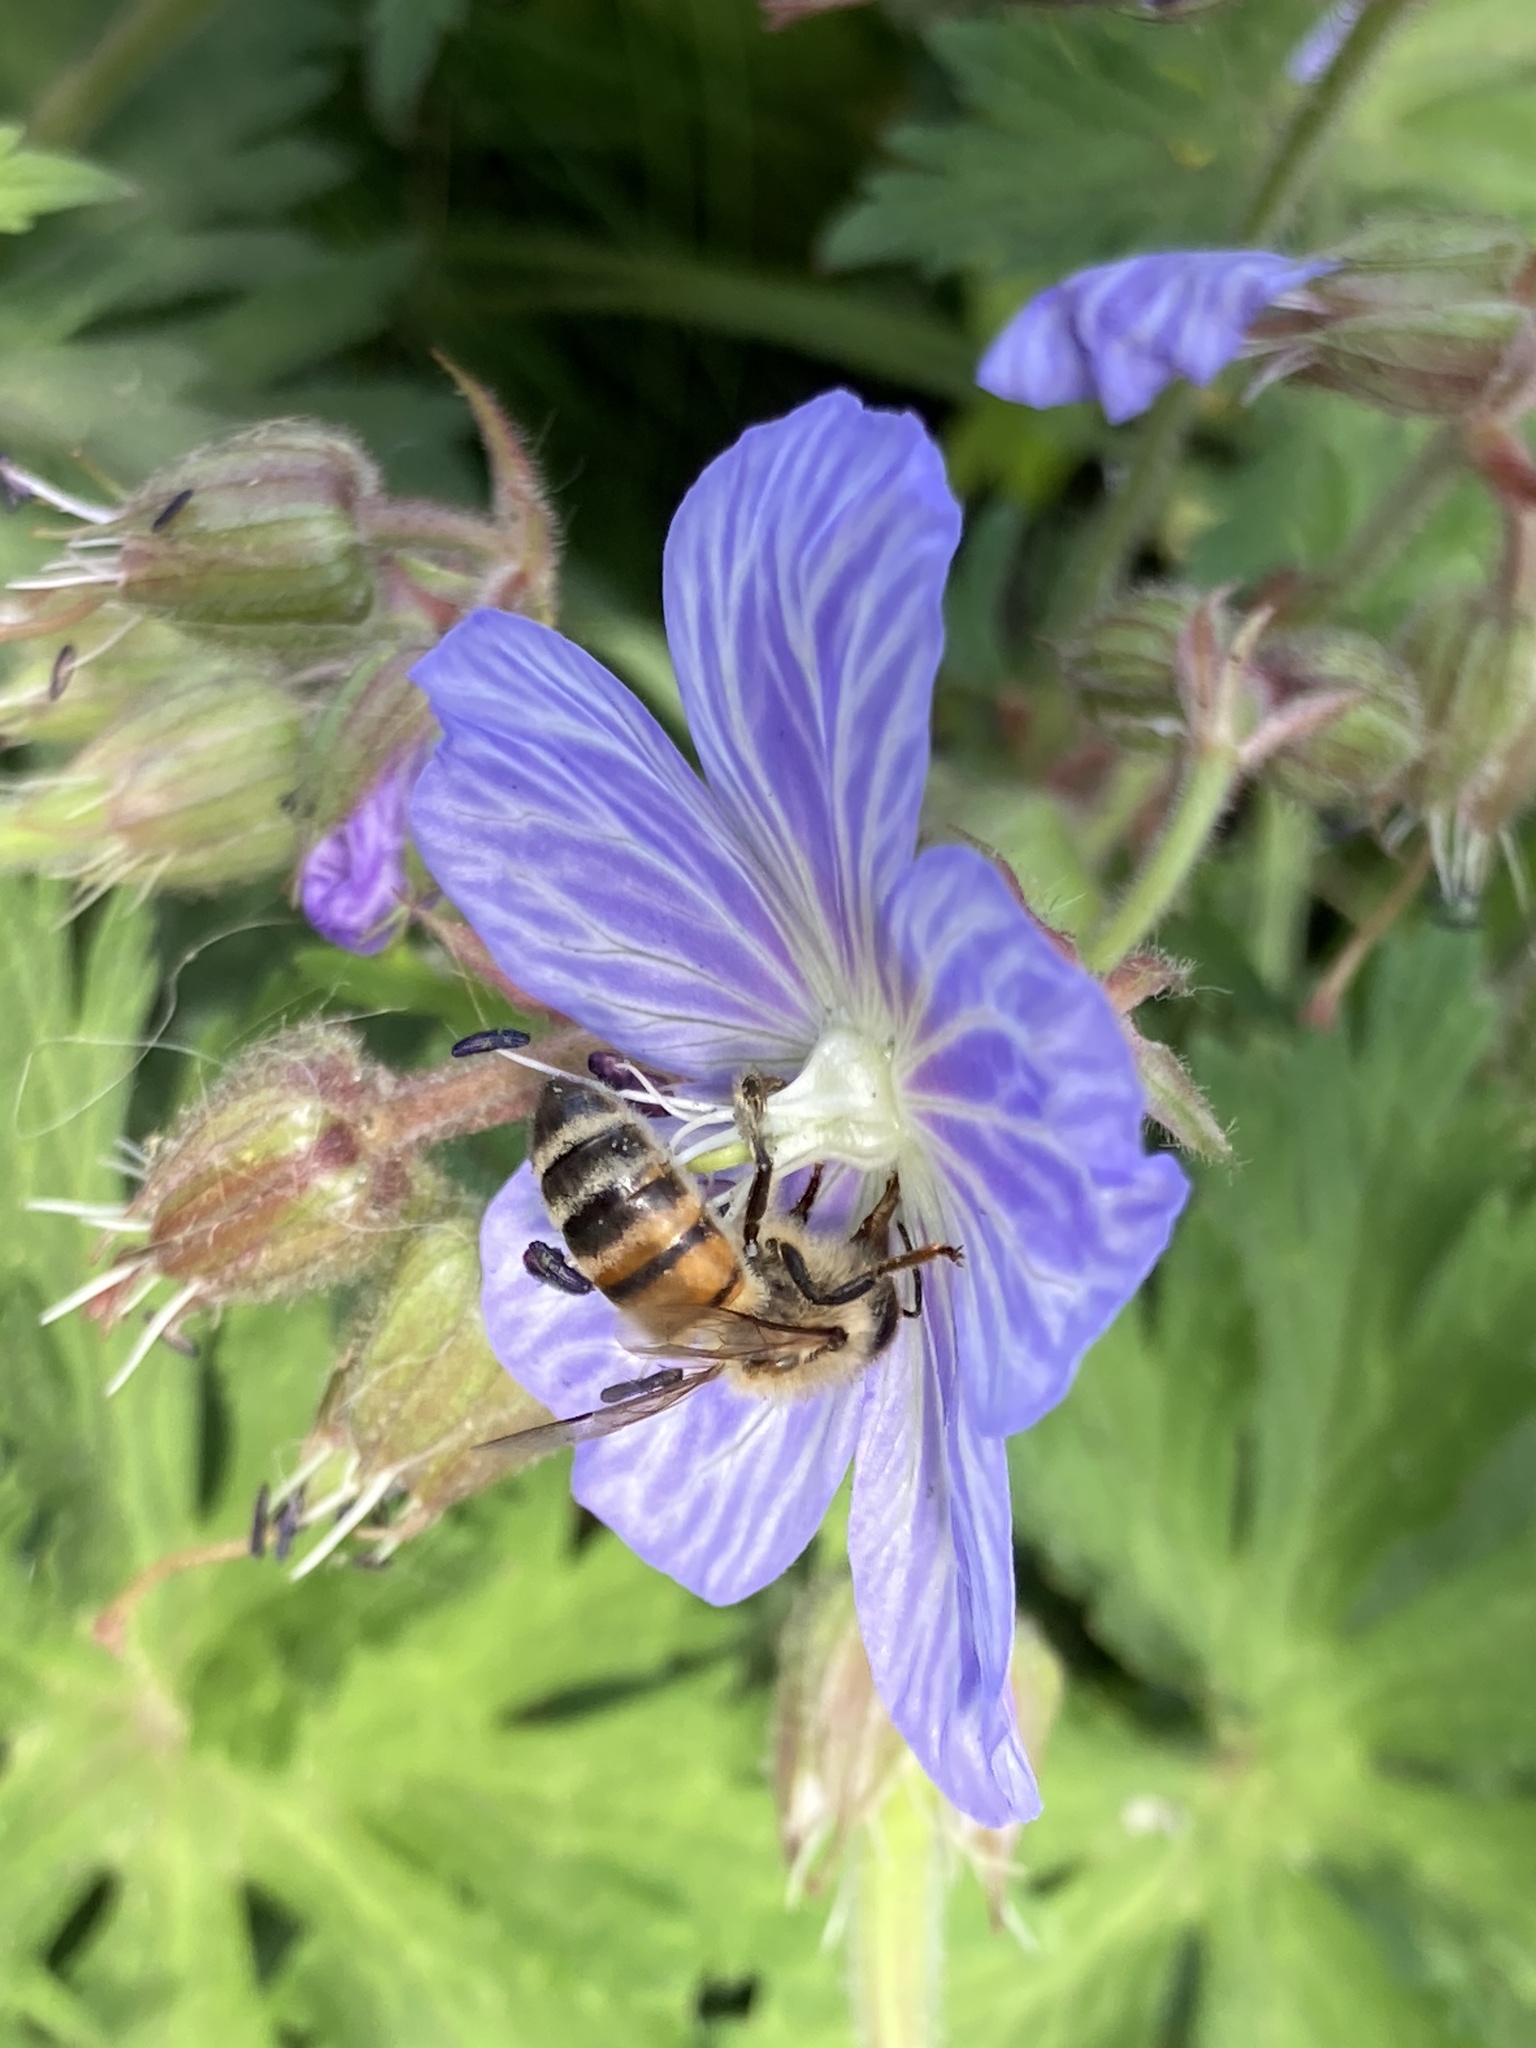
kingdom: Animalia
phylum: Arthropoda
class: Insecta
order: Hymenoptera
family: Apidae
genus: Apis
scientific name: Apis mellifera
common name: Honey bee
